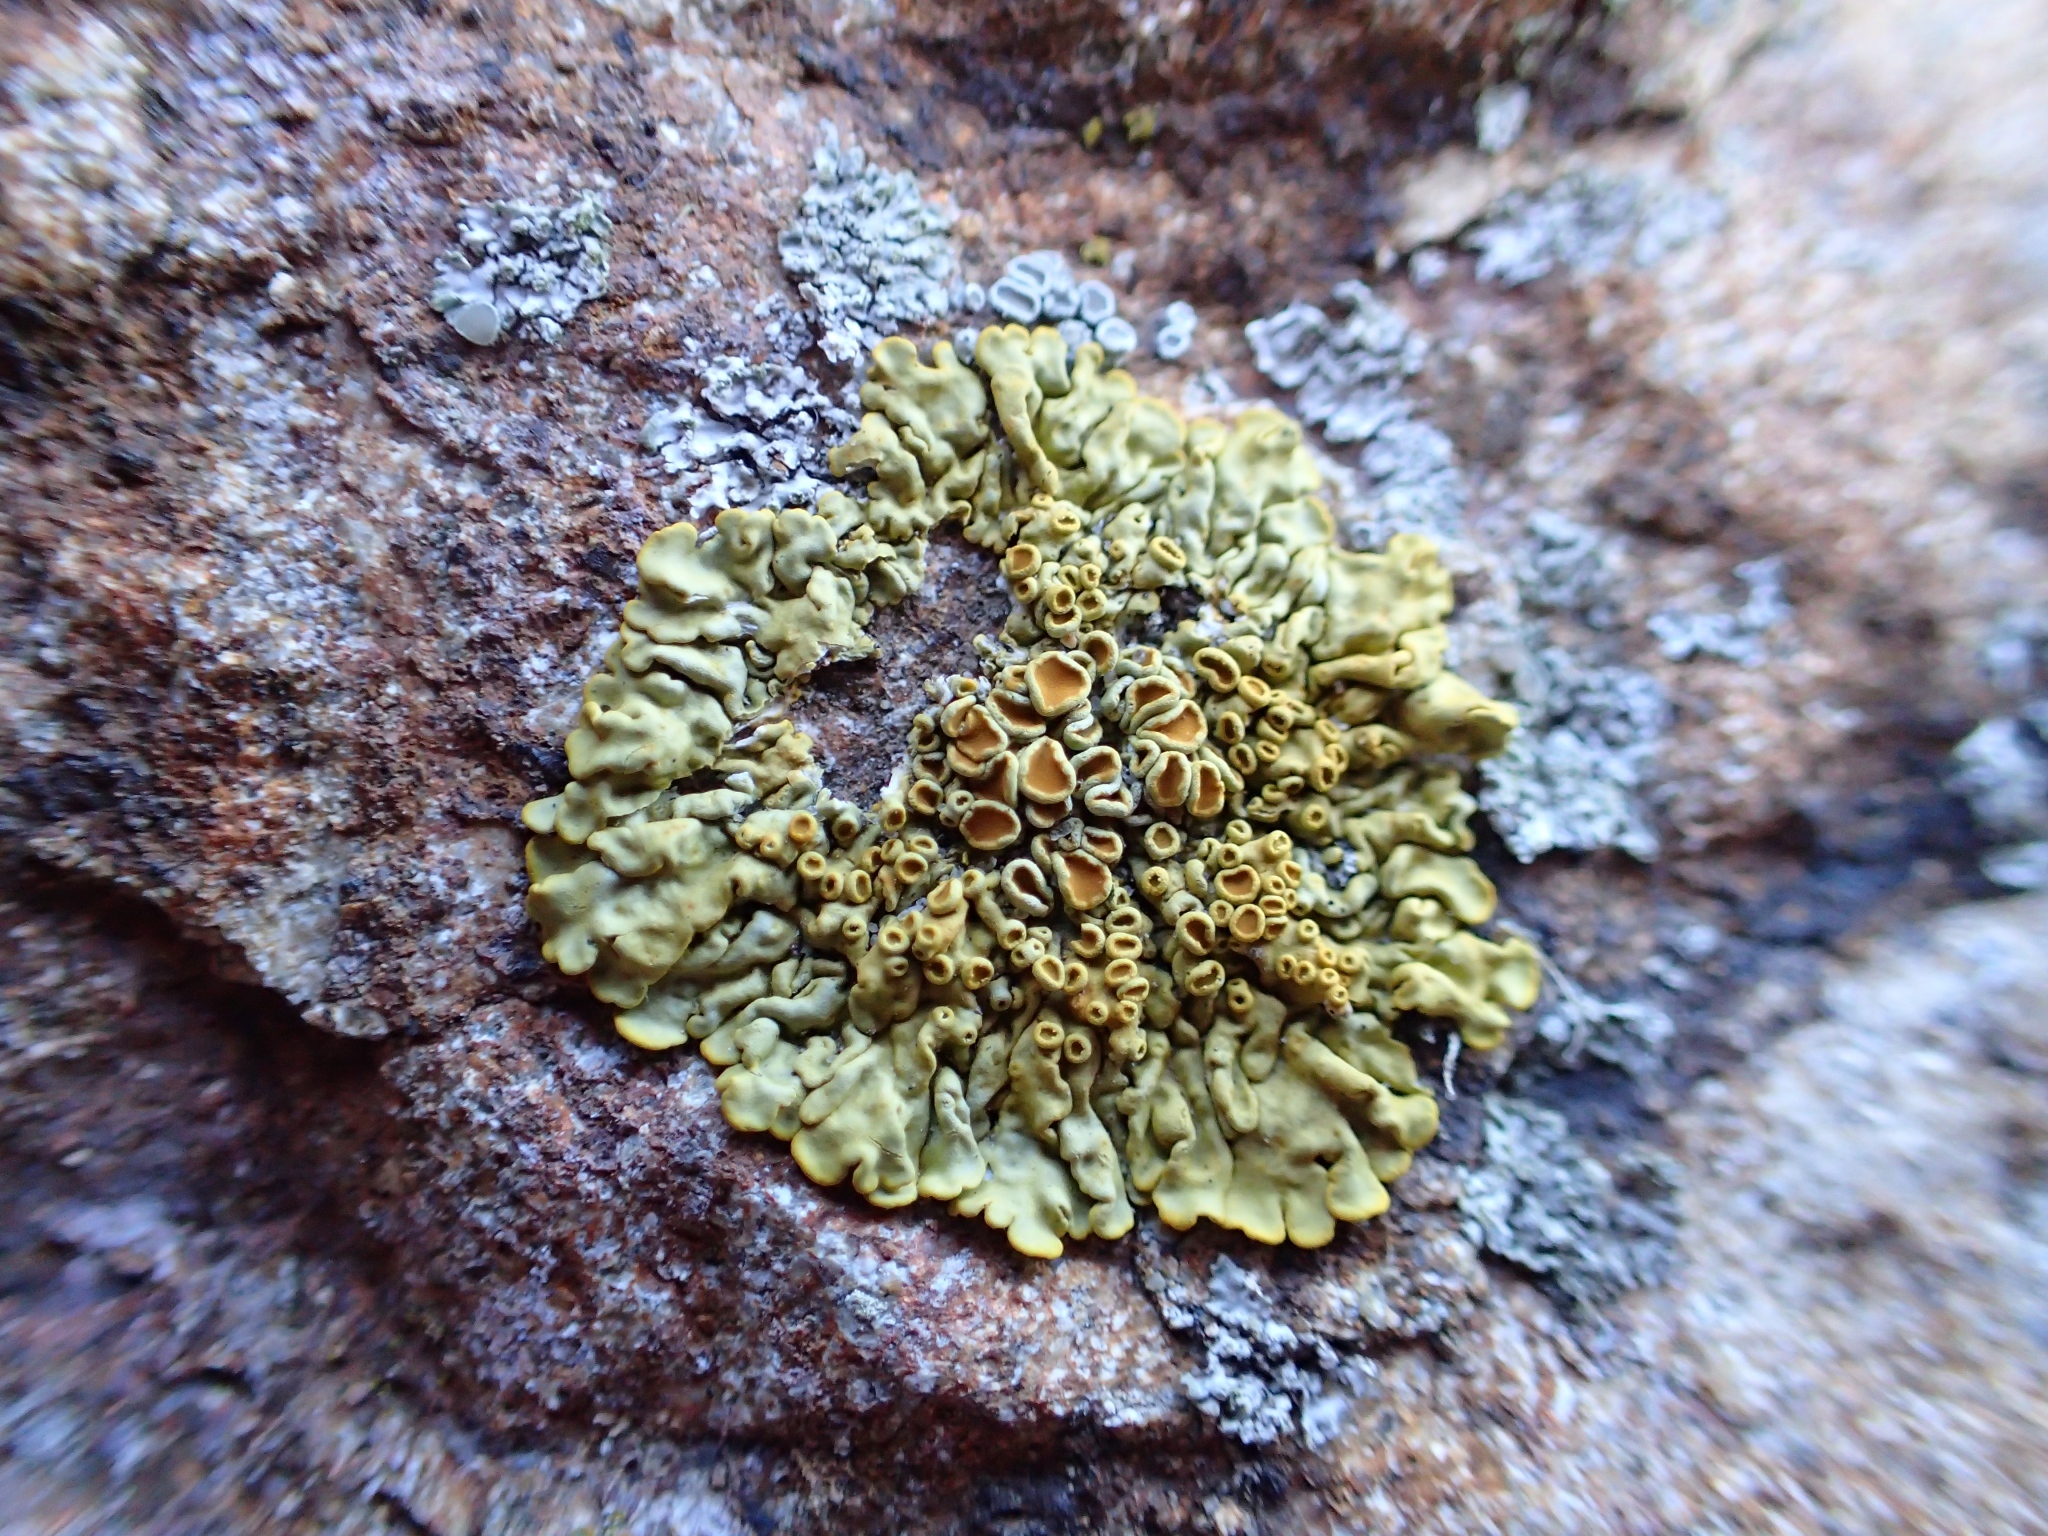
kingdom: Fungi
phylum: Ascomycota
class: Lecanoromycetes
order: Teloschistales
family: Teloschistaceae
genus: Xanthoria
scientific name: Xanthoria parietina
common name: Common orange lichen
